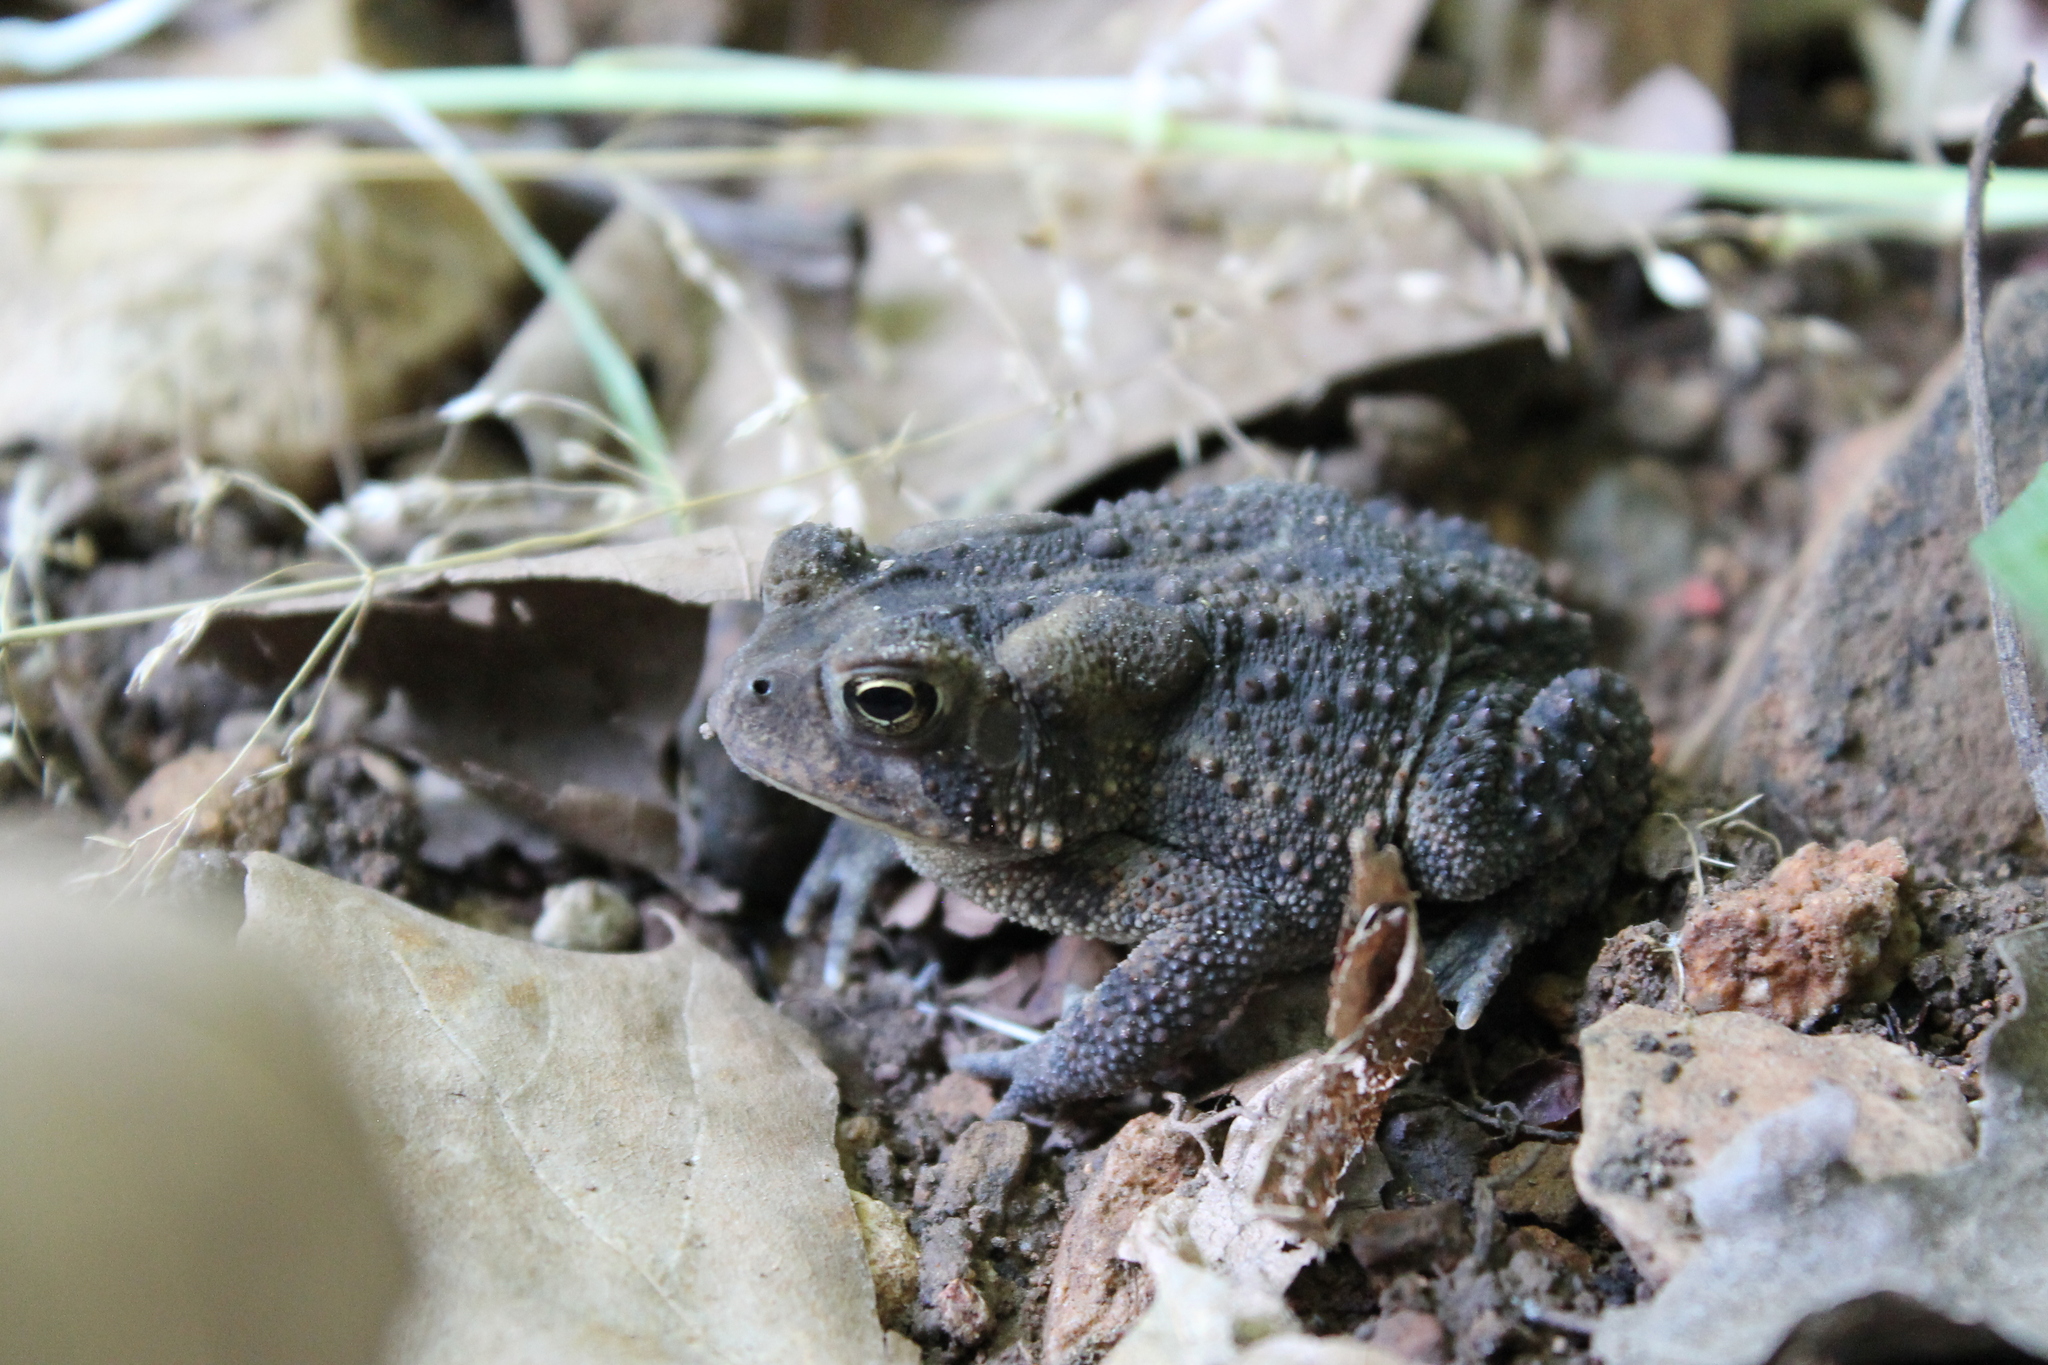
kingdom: Animalia
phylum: Chordata
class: Amphibia
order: Anura
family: Bufonidae
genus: Anaxyrus
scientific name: Anaxyrus americanus
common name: American toad
